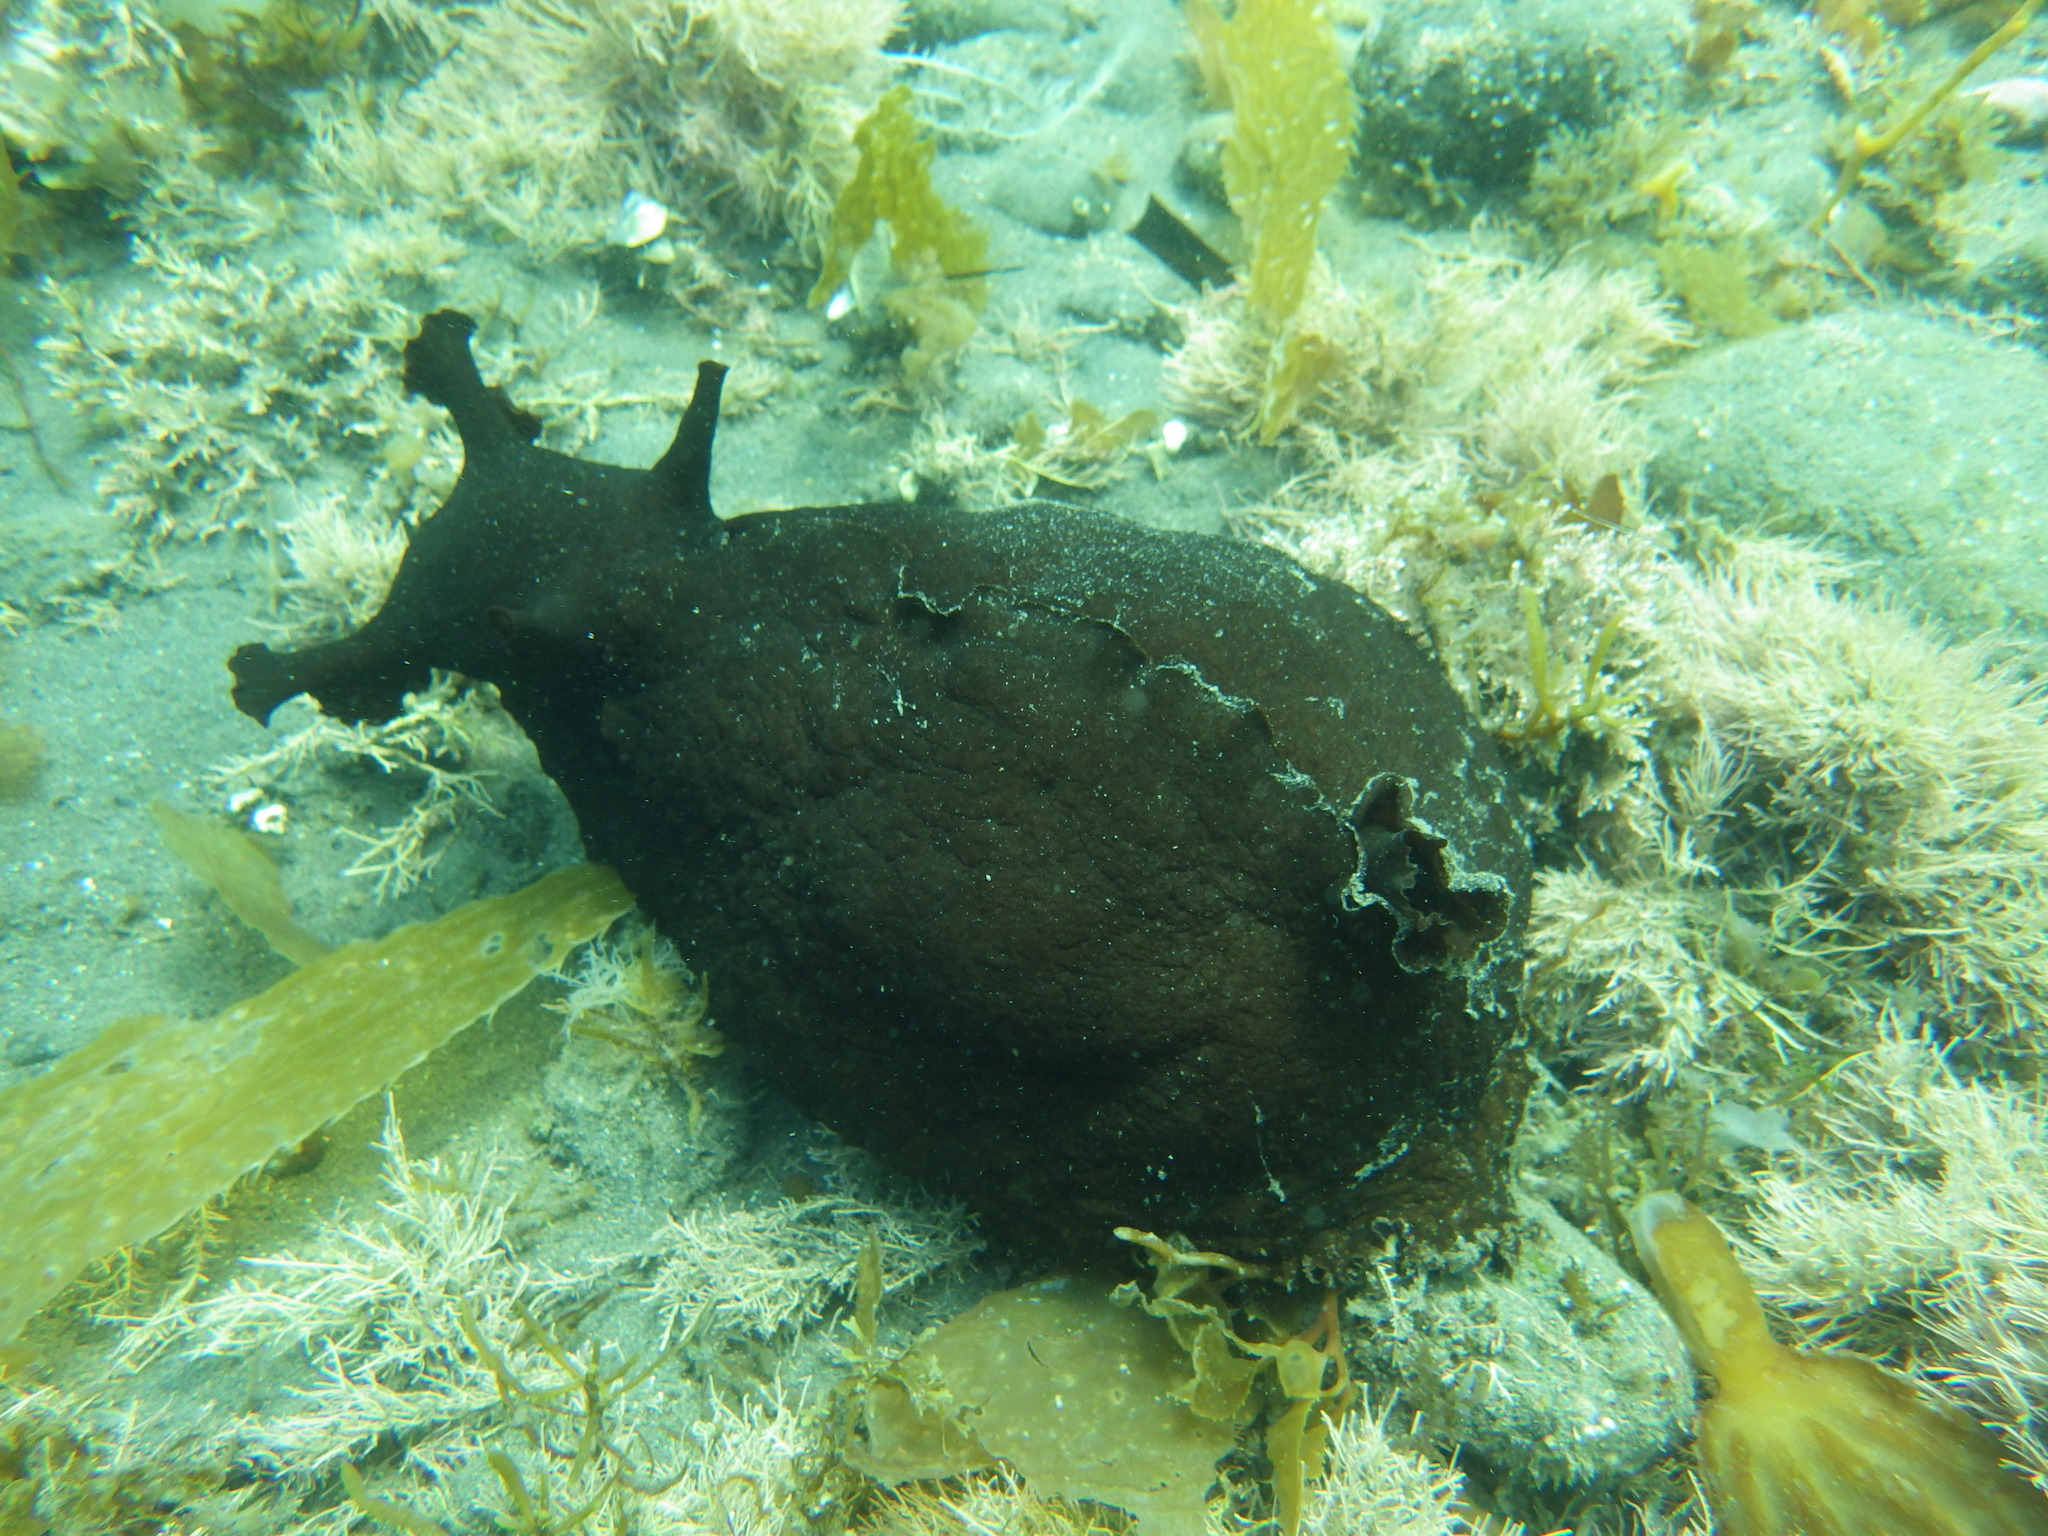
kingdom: Animalia
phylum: Mollusca
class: Gastropoda
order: Aplysiida
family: Aplysiidae
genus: Aplysia
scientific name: Aplysia californica
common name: California seahare
